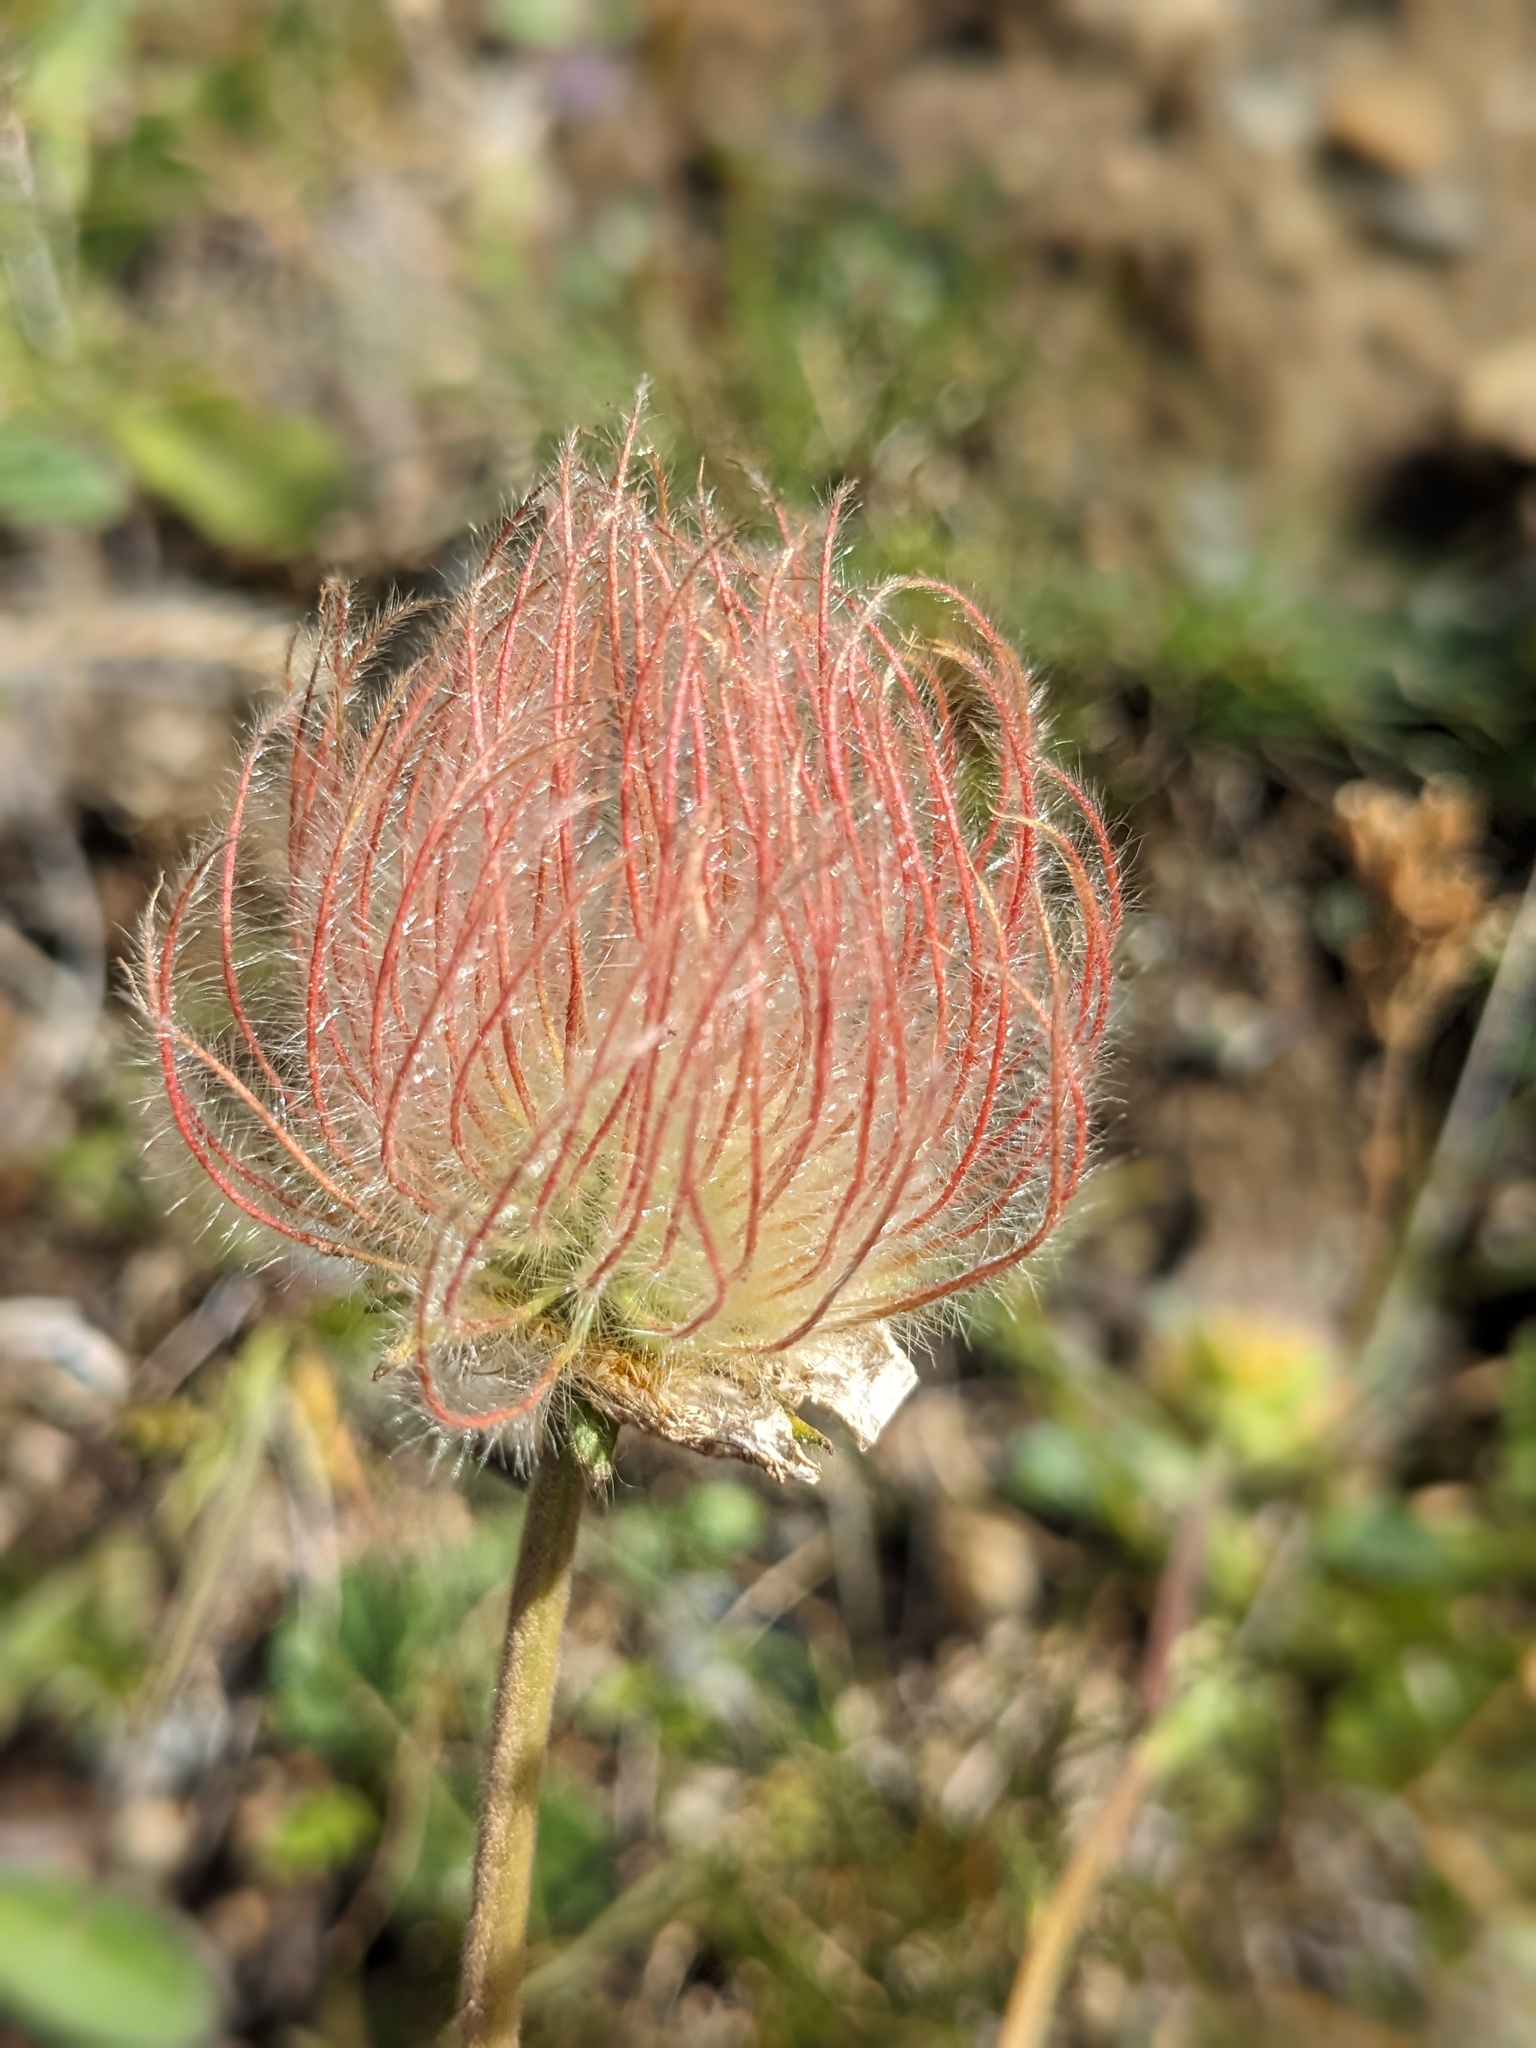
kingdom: Plantae
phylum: Tracheophyta
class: Magnoliopsida
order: Rosales
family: Rosaceae
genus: Geum
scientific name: Geum montanum
